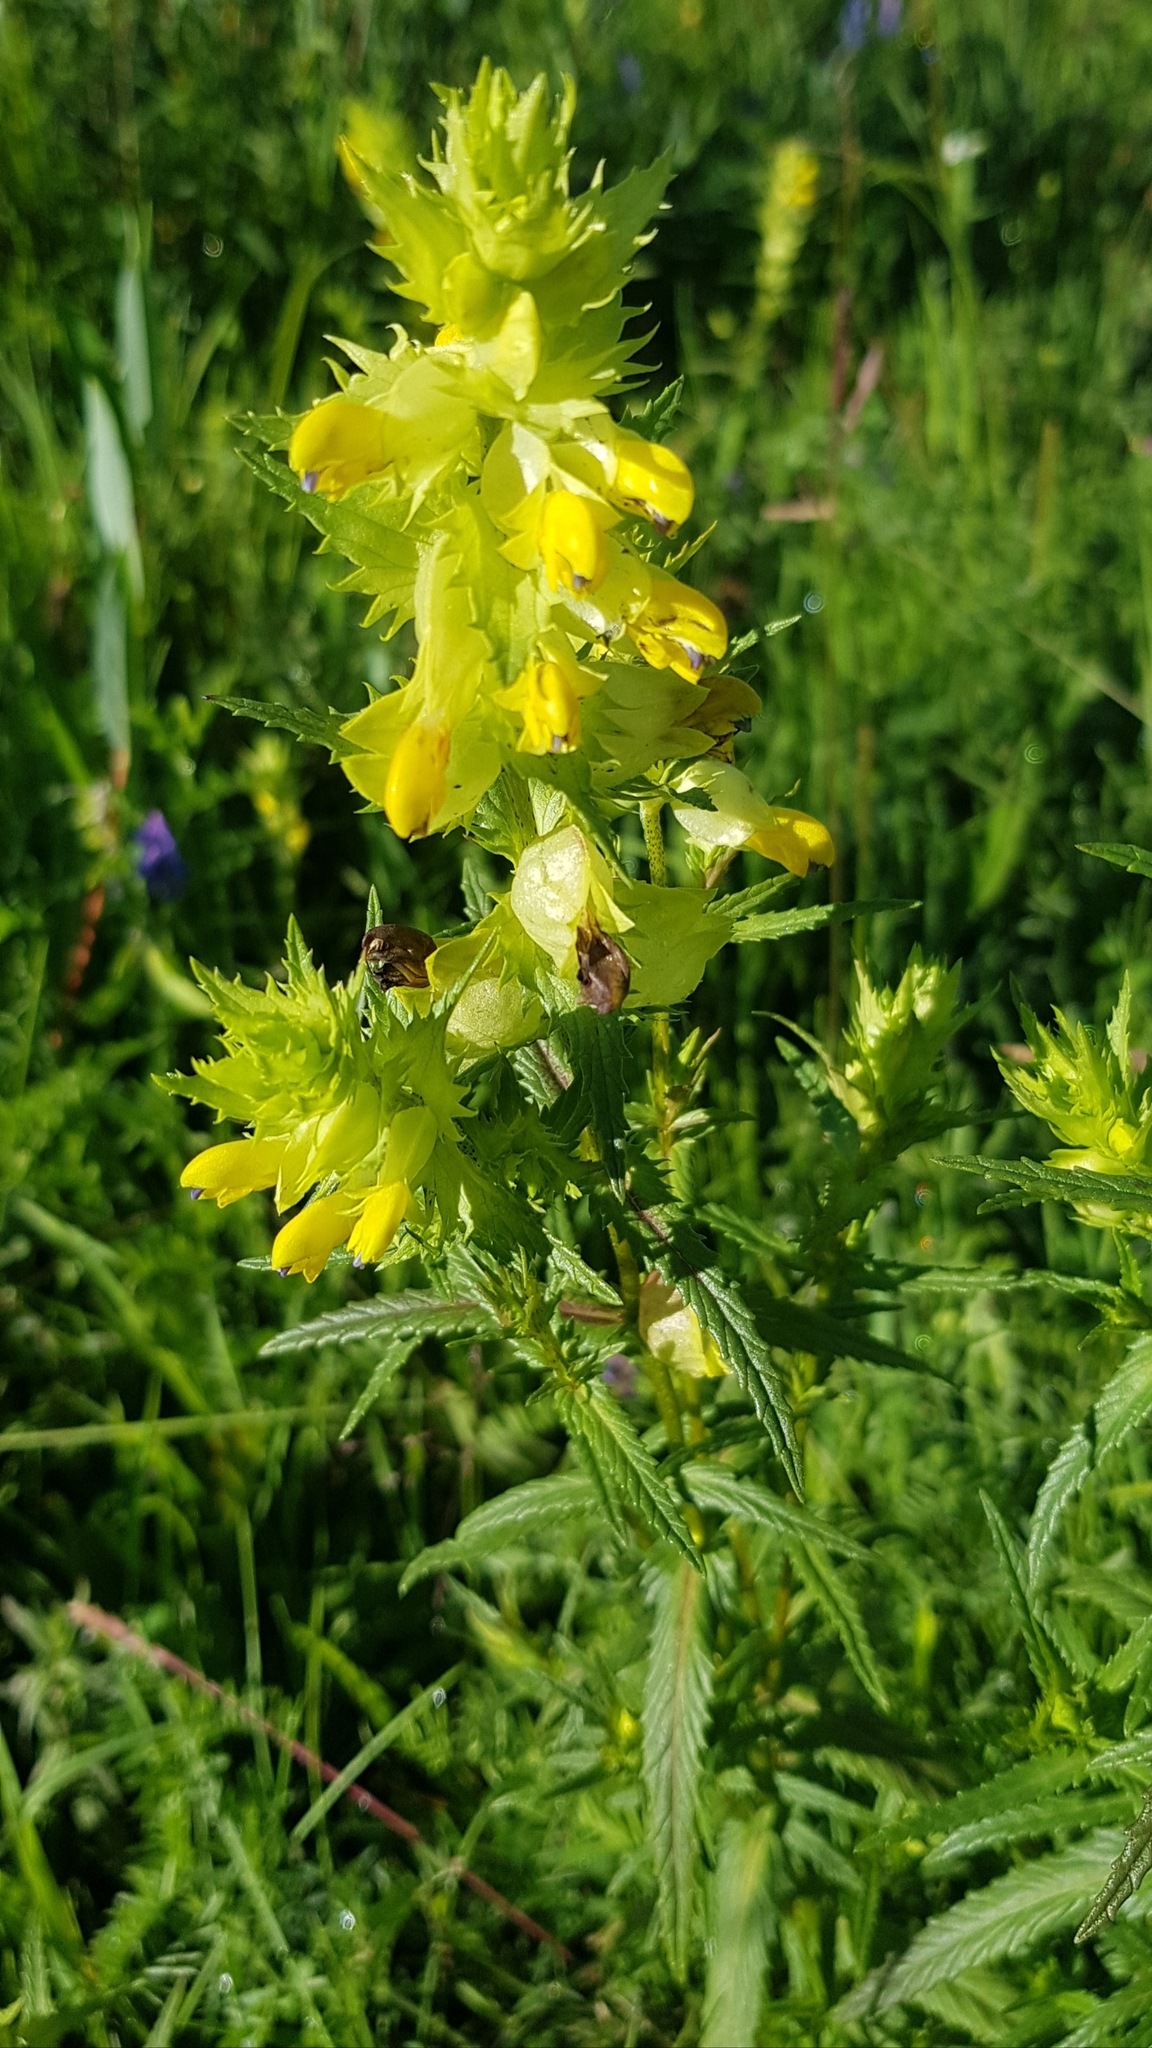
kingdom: Plantae
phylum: Tracheophyta
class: Magnoliopsida
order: Lamiales
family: Orobanchaceae
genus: Rhinanthus
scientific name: Rhinanthus serotinus
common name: Late-flowering yellow rattle
